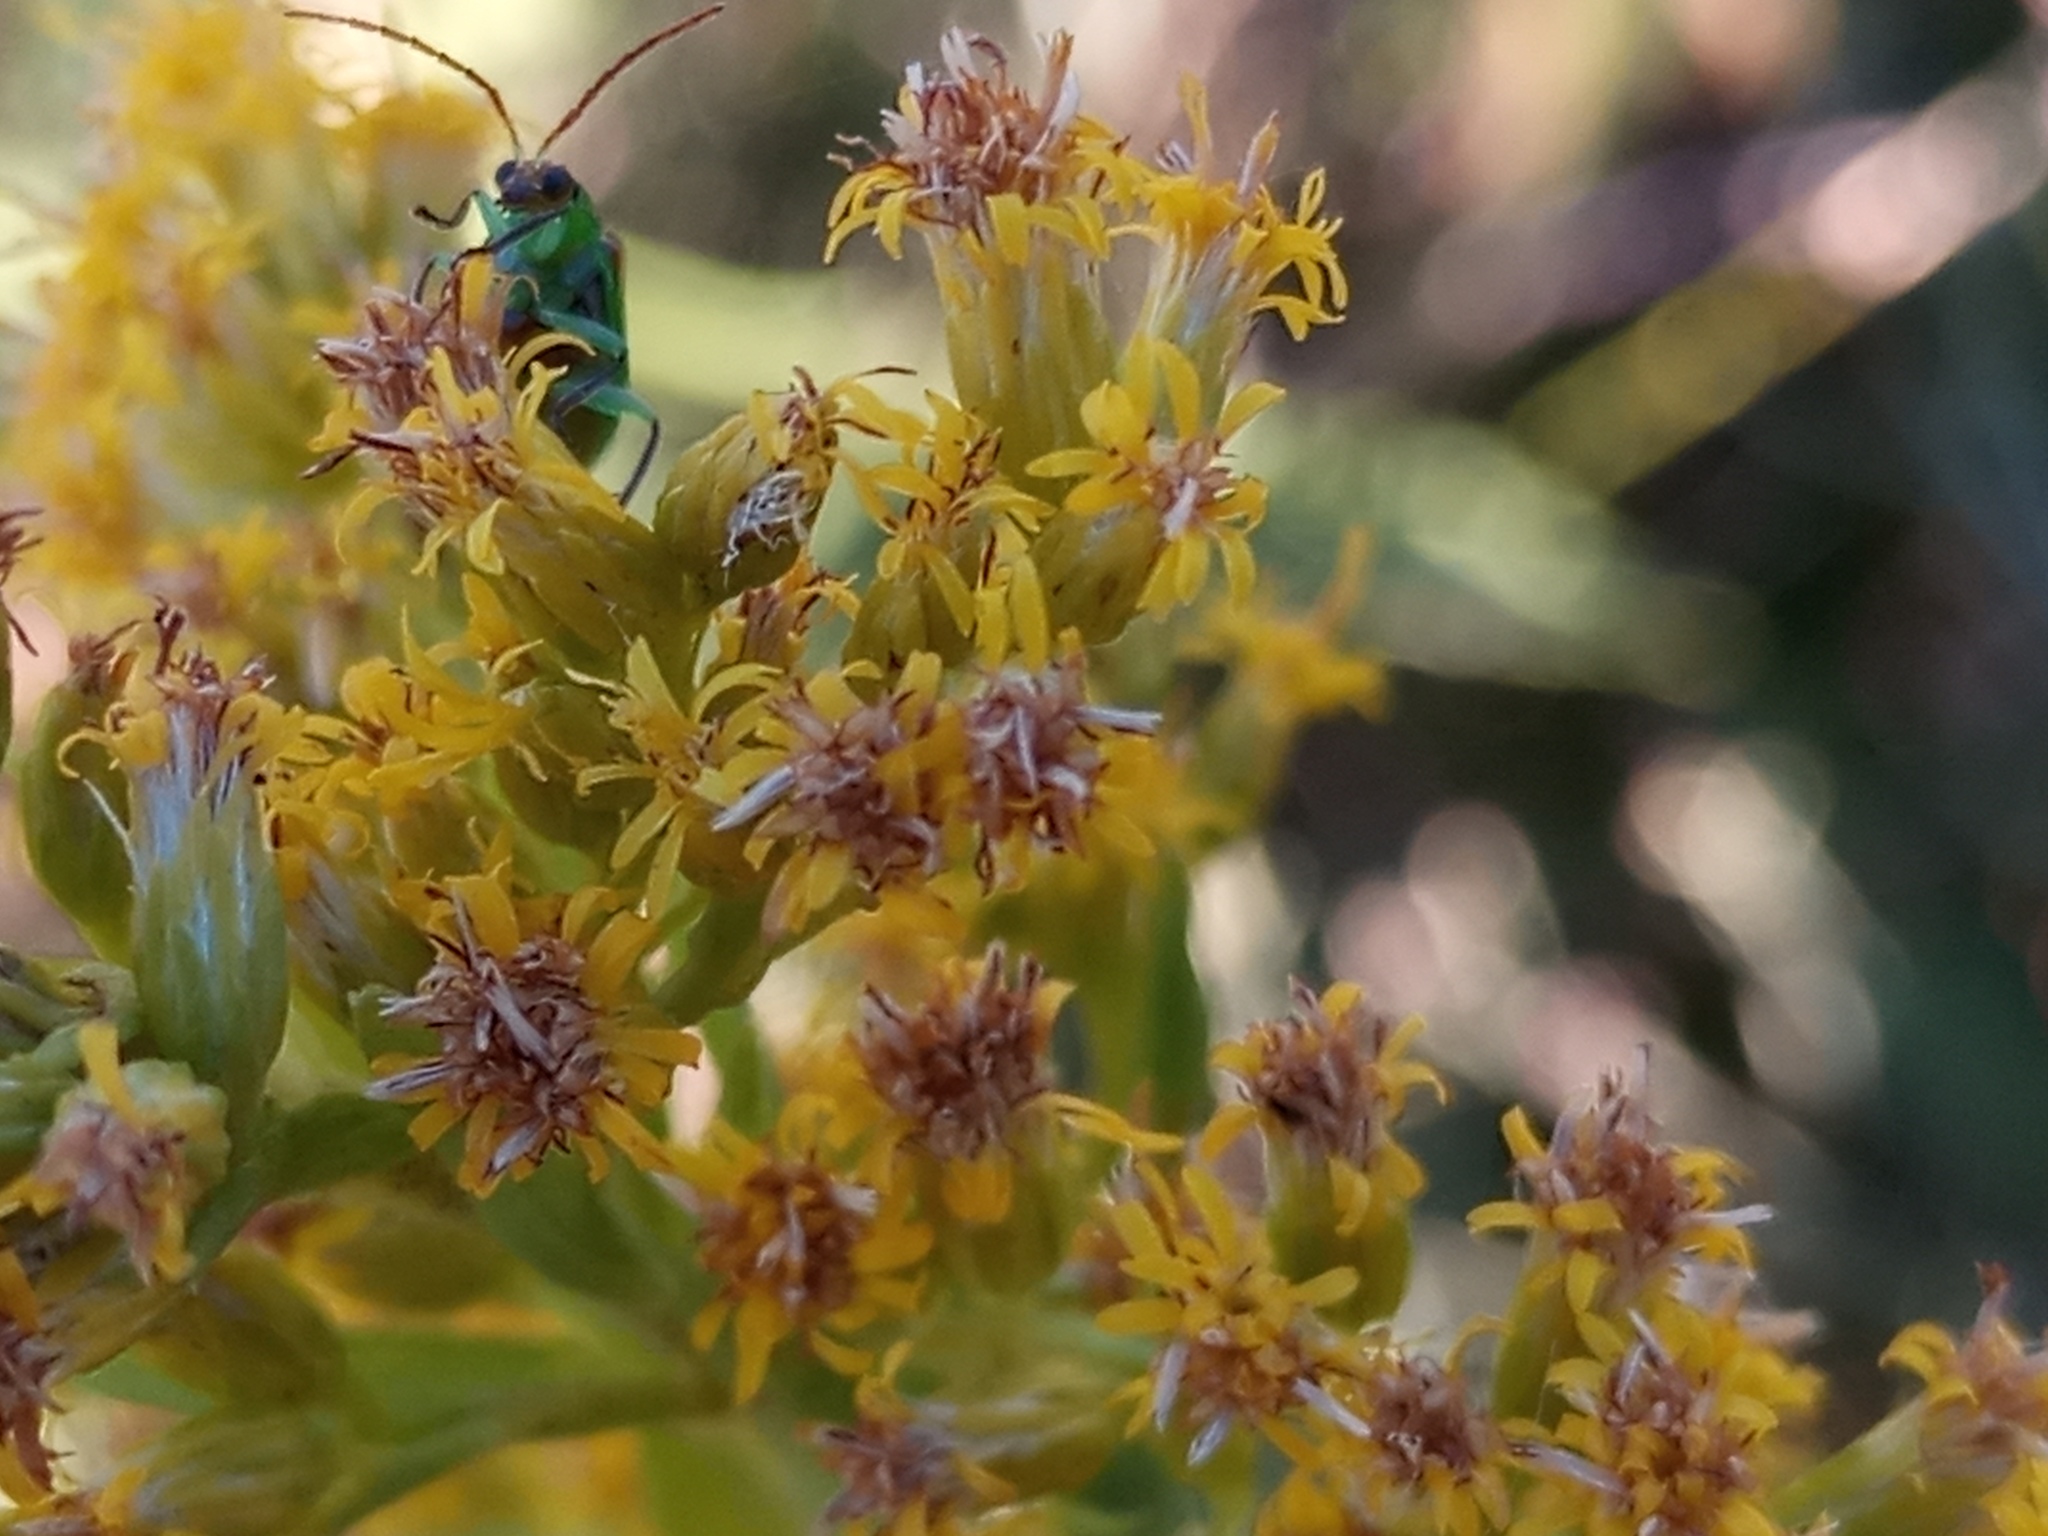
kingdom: Animalia
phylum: Arthropoda
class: Insecta
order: Coleoptera
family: Chrysomelidae
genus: Diabrotica
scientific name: Diabrotica speciosa
